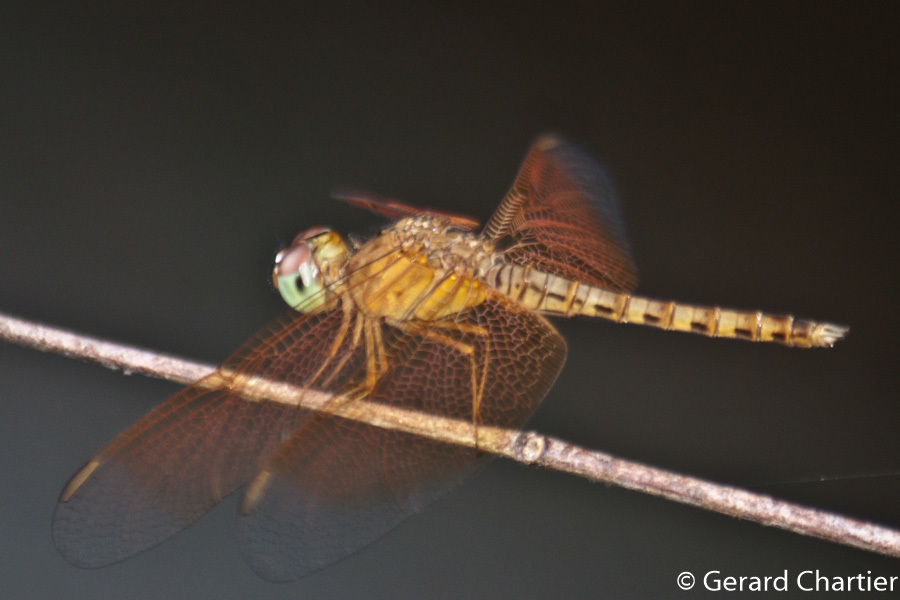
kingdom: Animalia
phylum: Arthropoda
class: Insecta
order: Odonata
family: Libellulidae
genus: Neurothemis
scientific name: Neurothemis fluctuans
